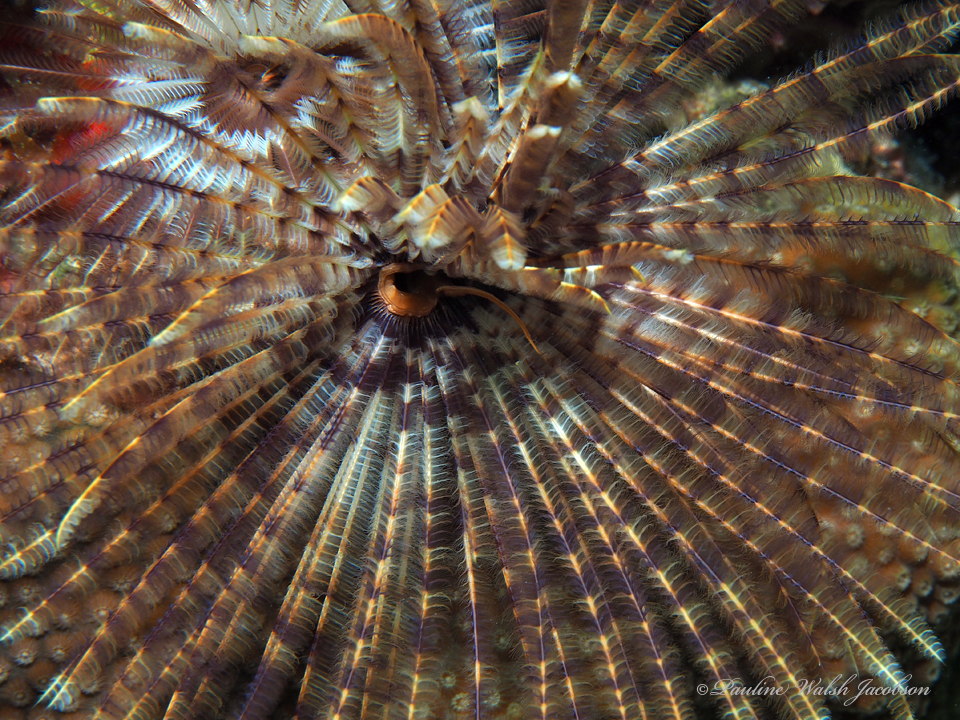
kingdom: Animalia
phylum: Annelida
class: Polychaeta
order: Sabellida
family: Sabellidae
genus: Sabellastarte
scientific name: Sabellastarte magnifica
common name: Giant feather-duster worm
